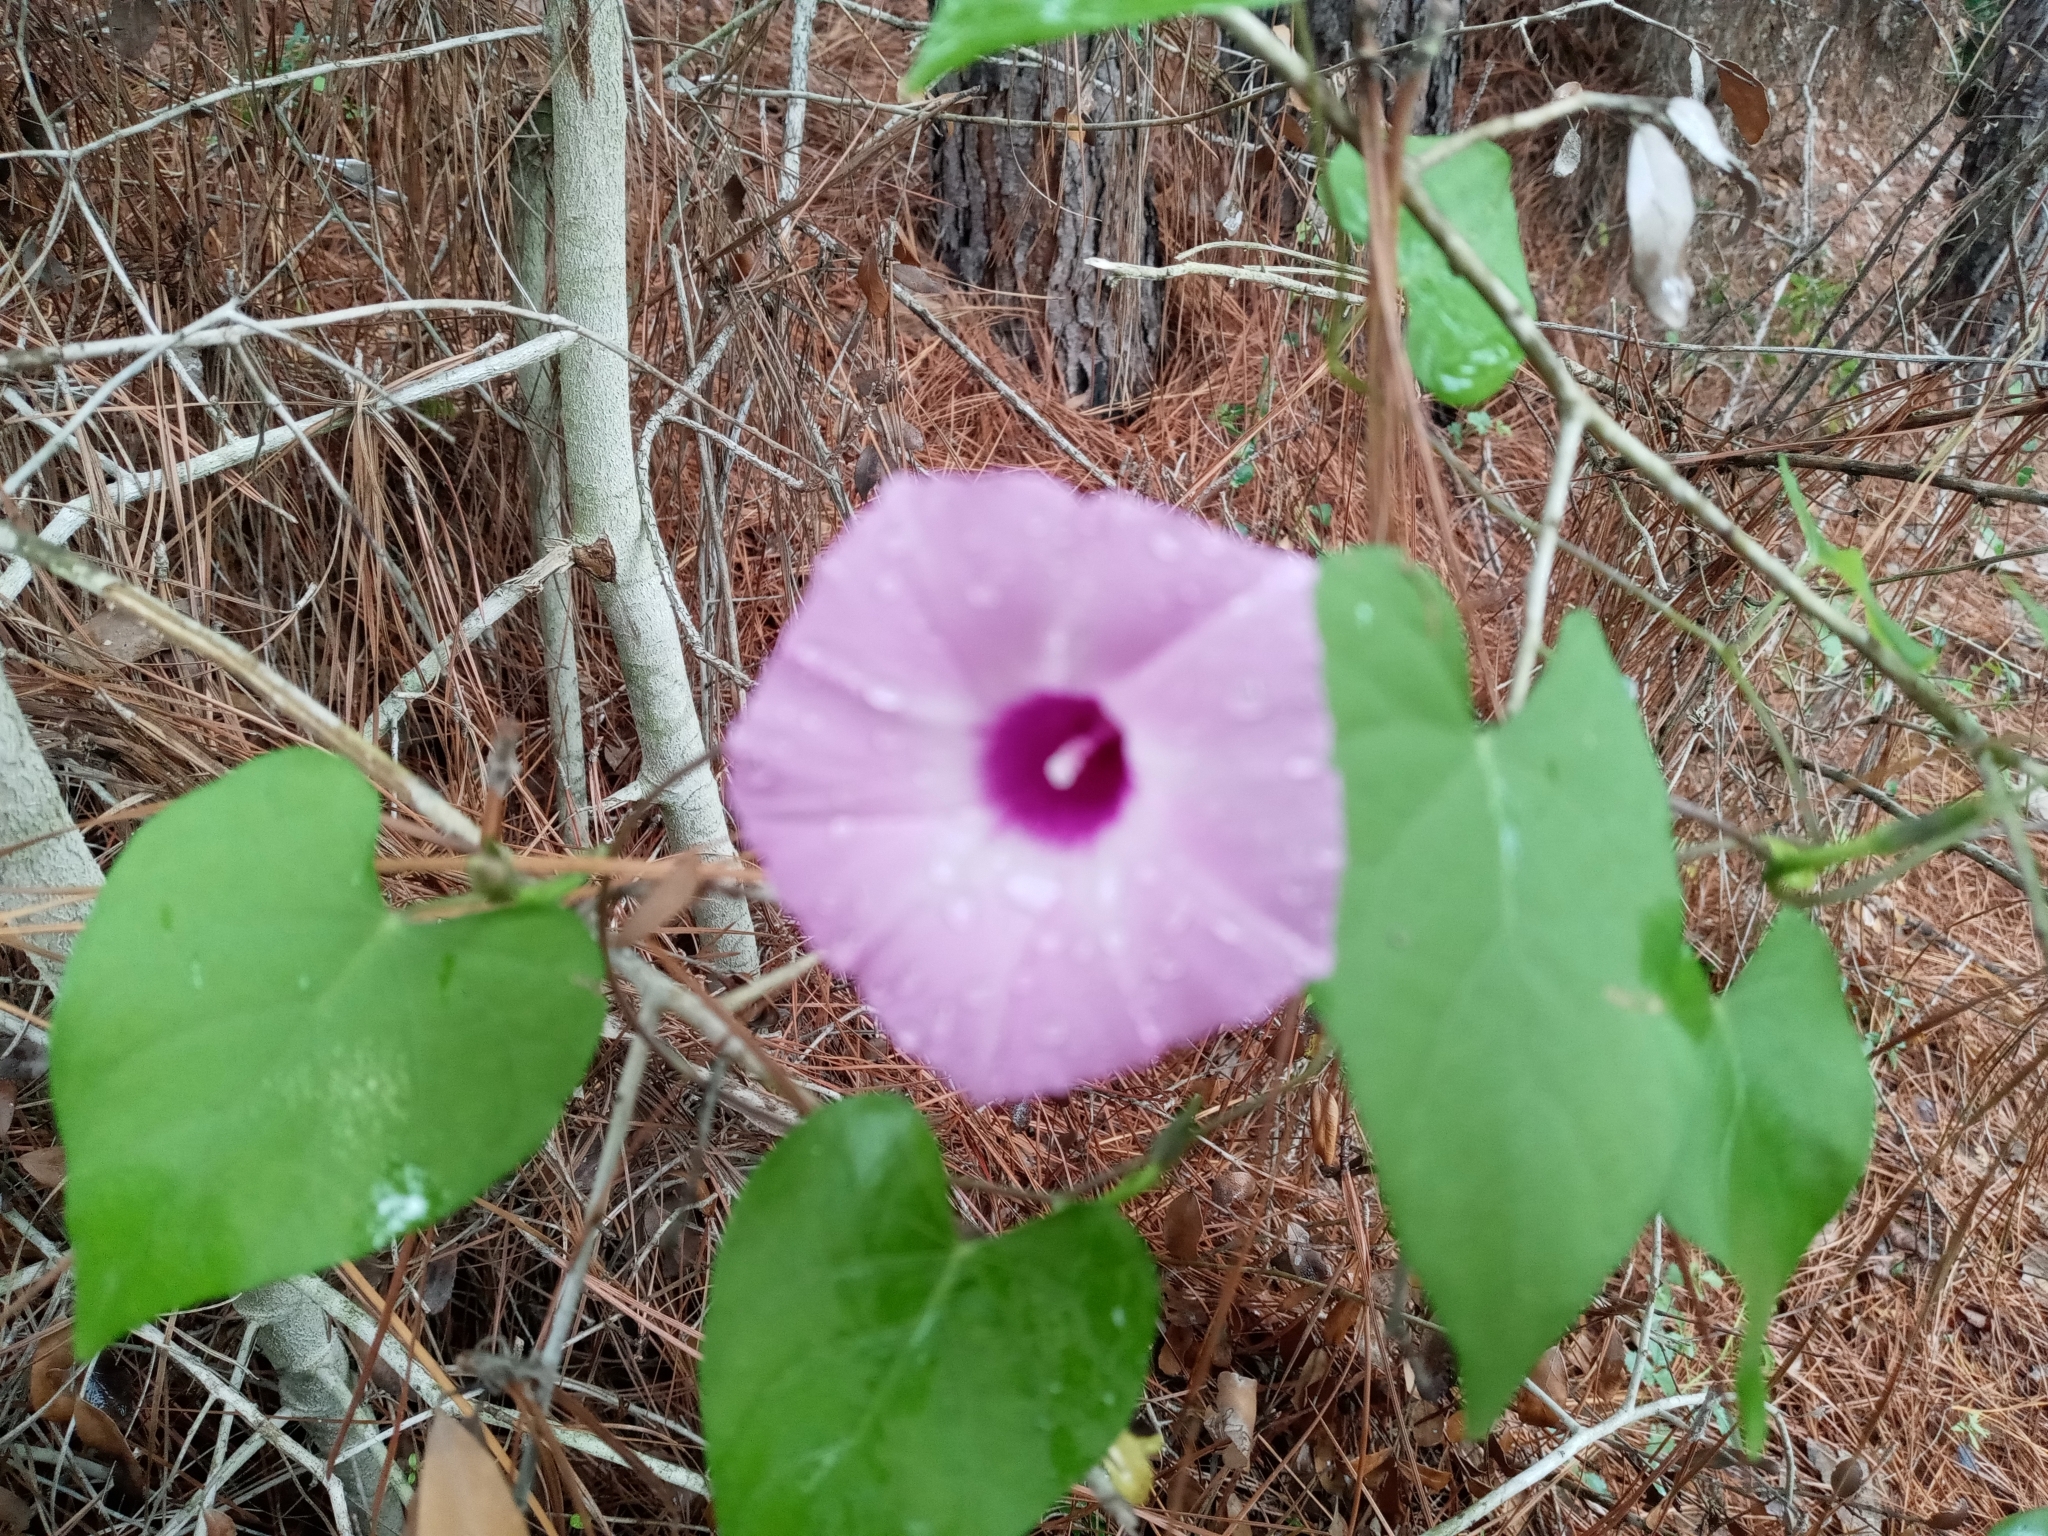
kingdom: Plantae
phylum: Tracheophyta
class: Magnoliopsida
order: Solanales
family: Convolvulaceae
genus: Ipomoea
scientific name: Ipomoea cordatotriloba
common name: Cotton morning glory
